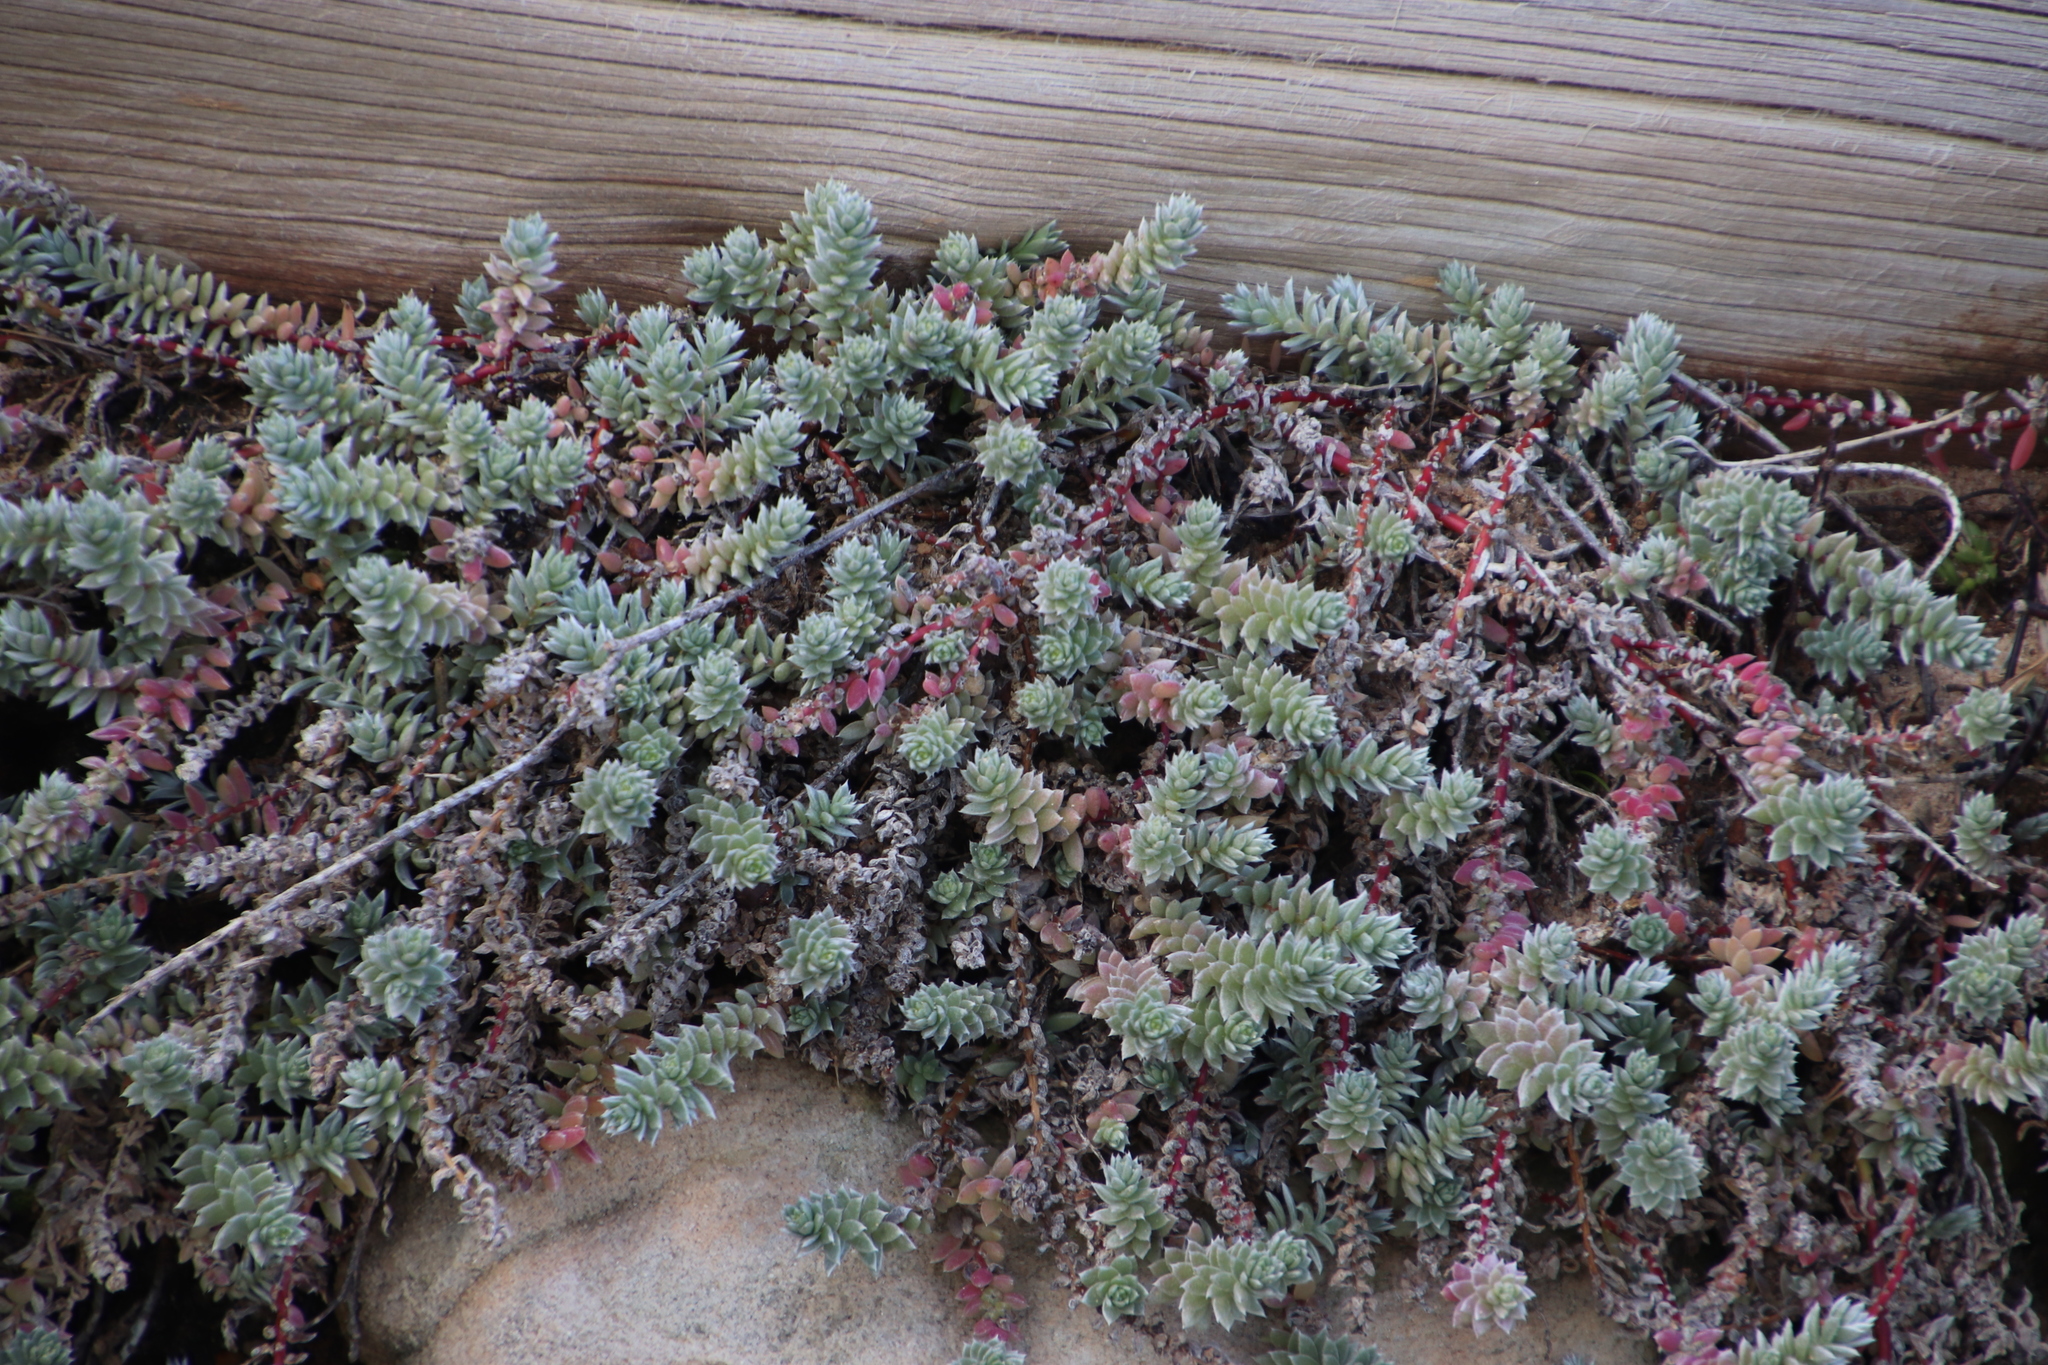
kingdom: Plantae
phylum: Tracheophyta
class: Magnoliopsida
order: Caryophyllales
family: Amaranthaceae
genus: Chenolea
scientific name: Chenolea diffusa
